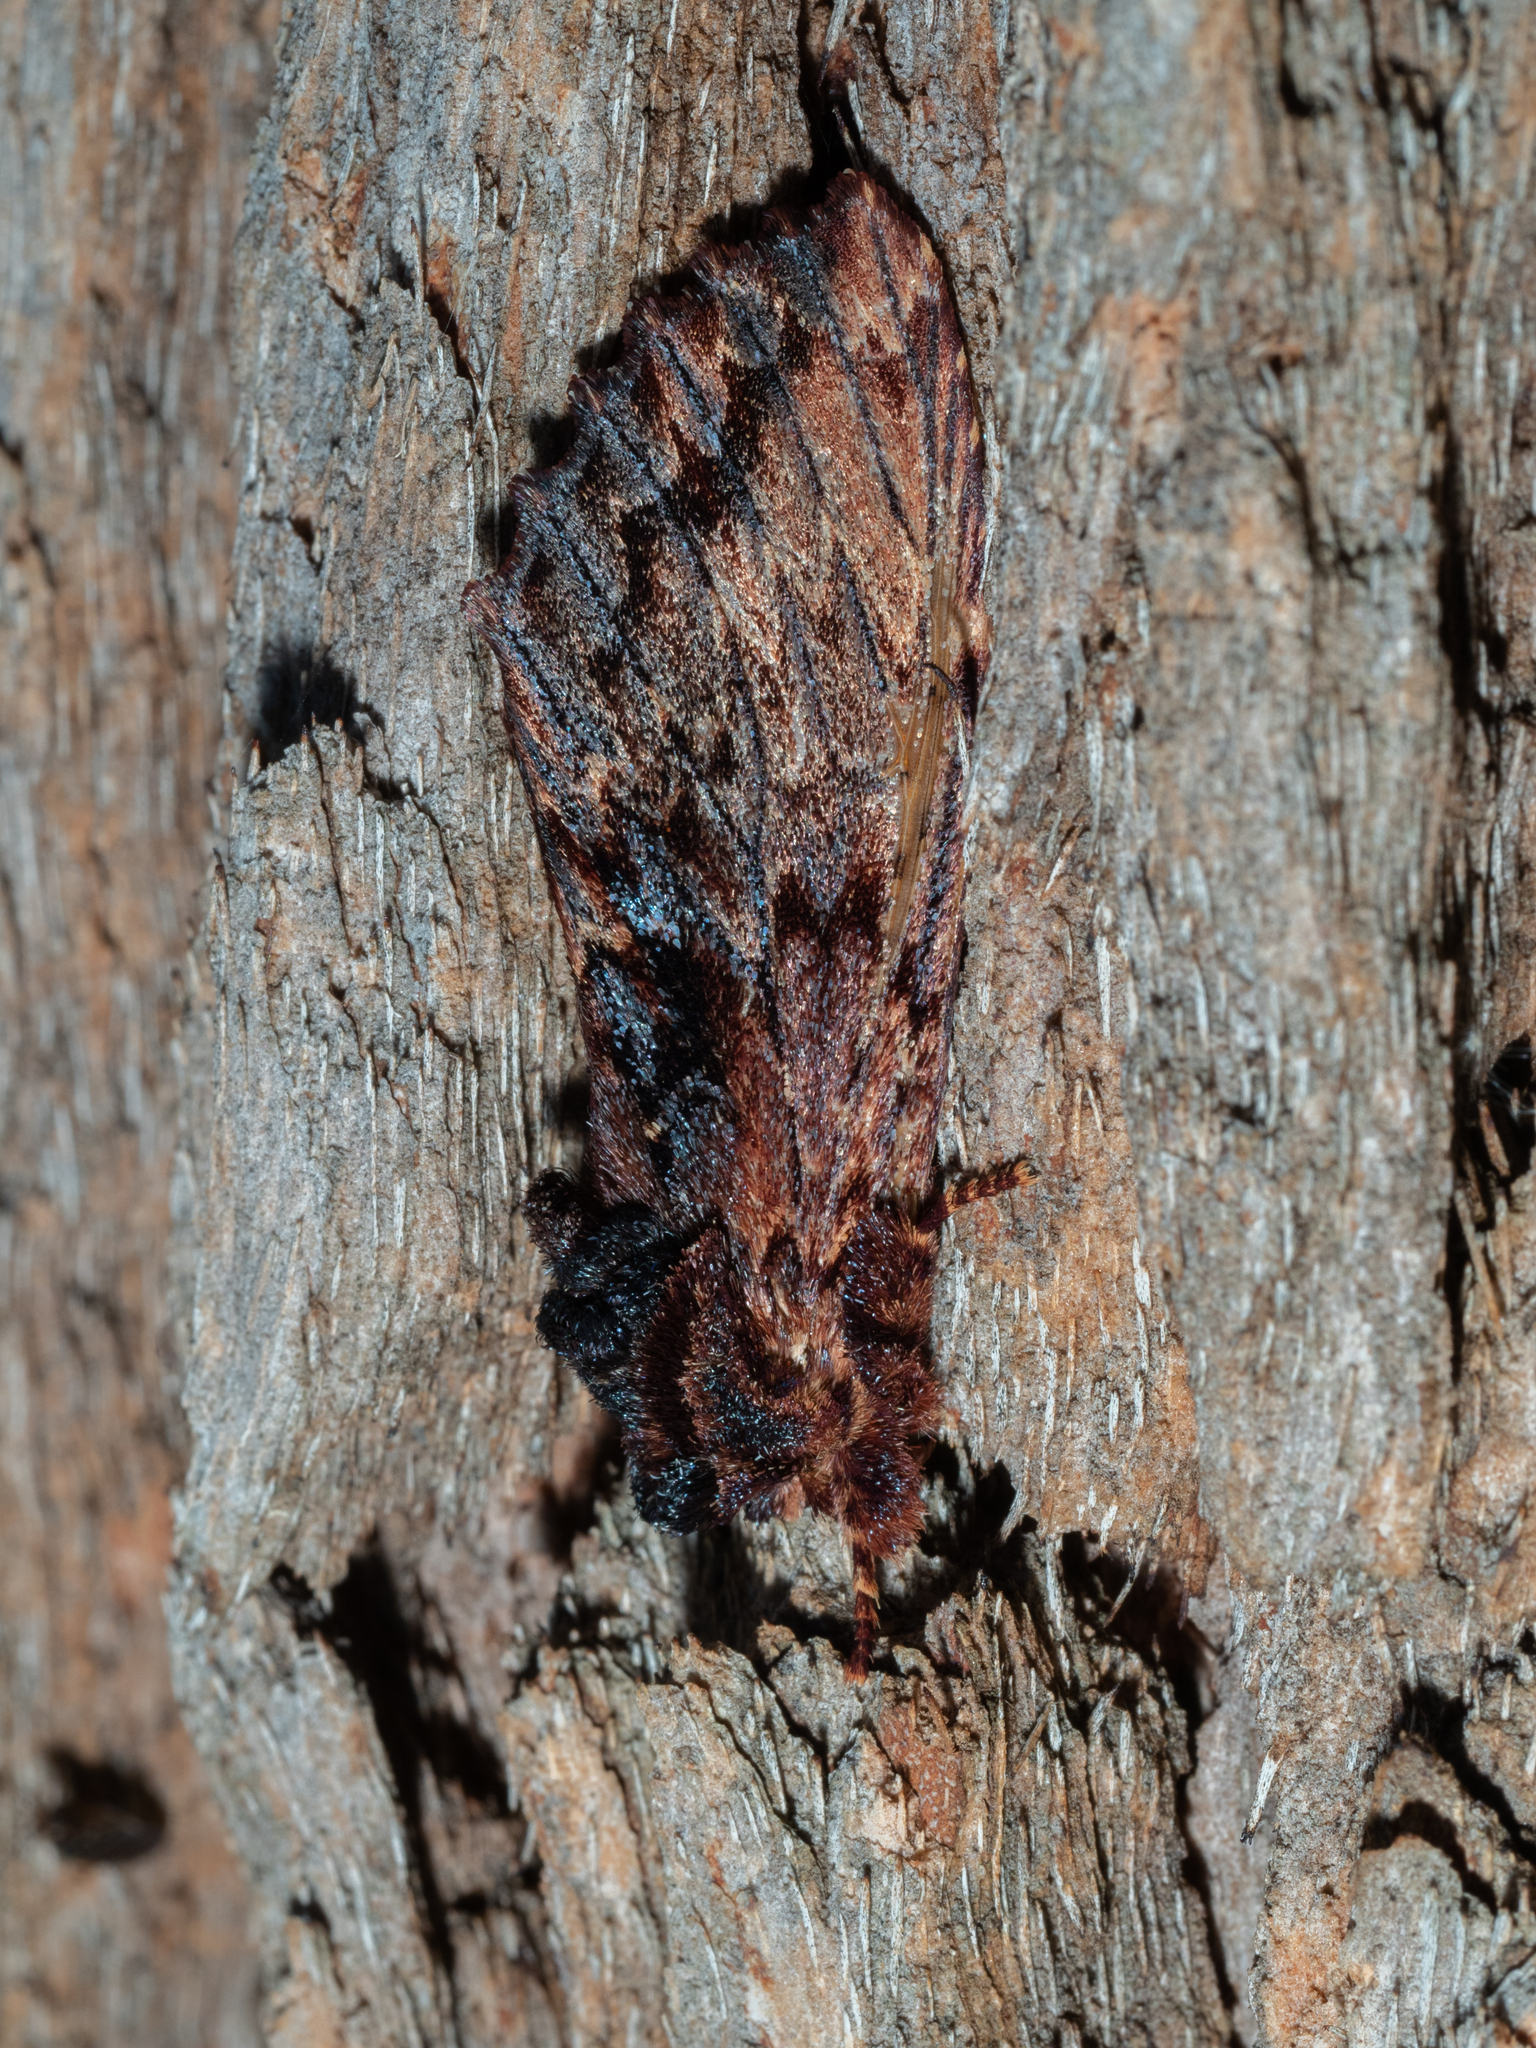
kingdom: Animalia
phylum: Arthropoda
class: Insecta
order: Lepidoptera
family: Notodontidae
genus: Sorama
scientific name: Sorama bicolor
